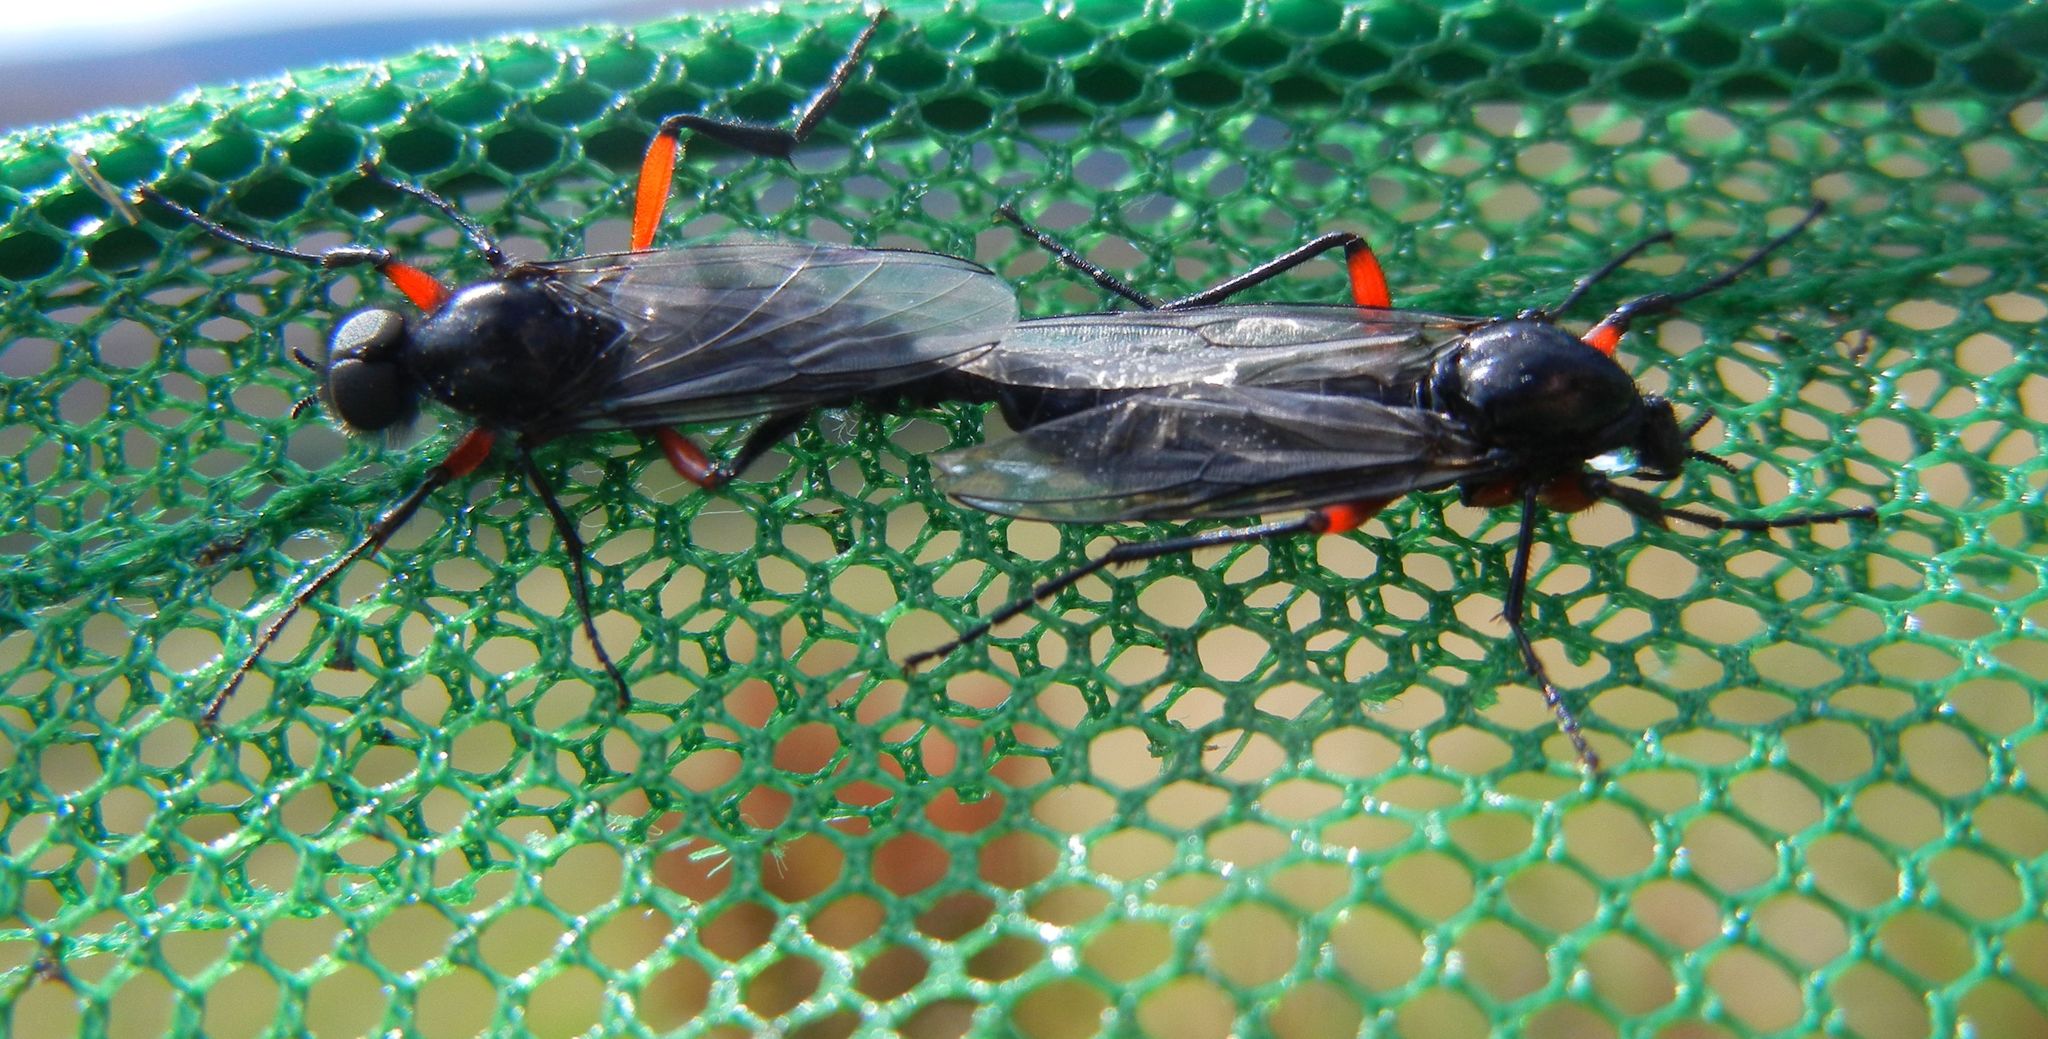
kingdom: Animalia
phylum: Arthropoda
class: Insecta
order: Diptera
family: Bibionidae
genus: Bibio
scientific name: Bibio pomonae
